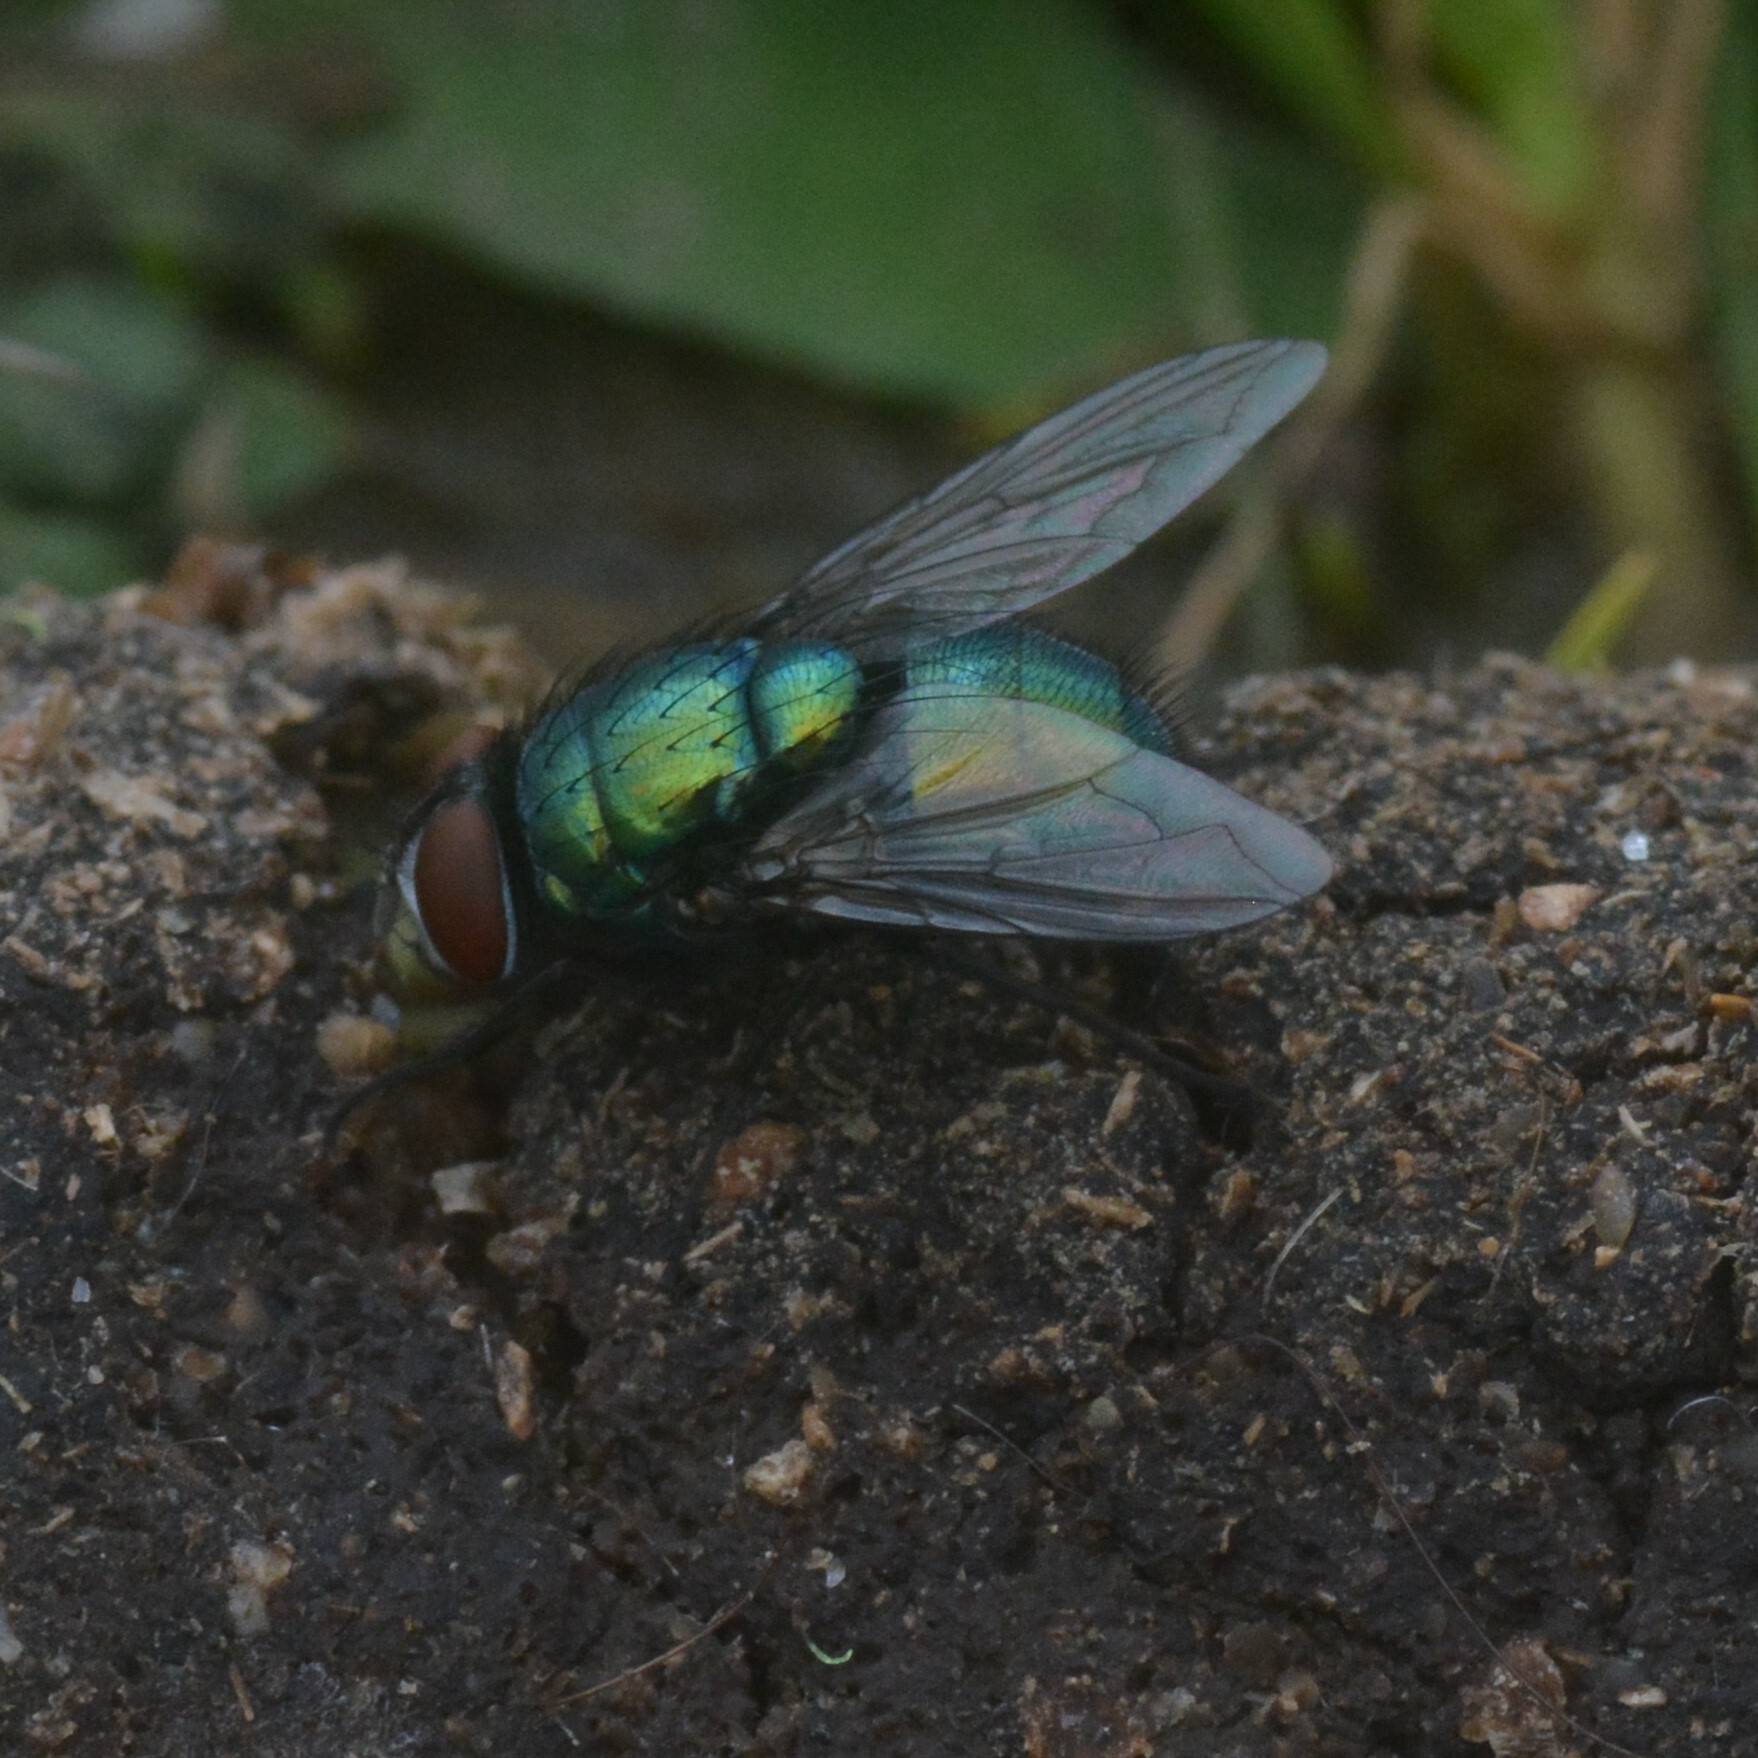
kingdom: Animalia
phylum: Arthropoda
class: Insecta
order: Diptera
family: Calliphoridae
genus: Lucilia
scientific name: Lucilia
